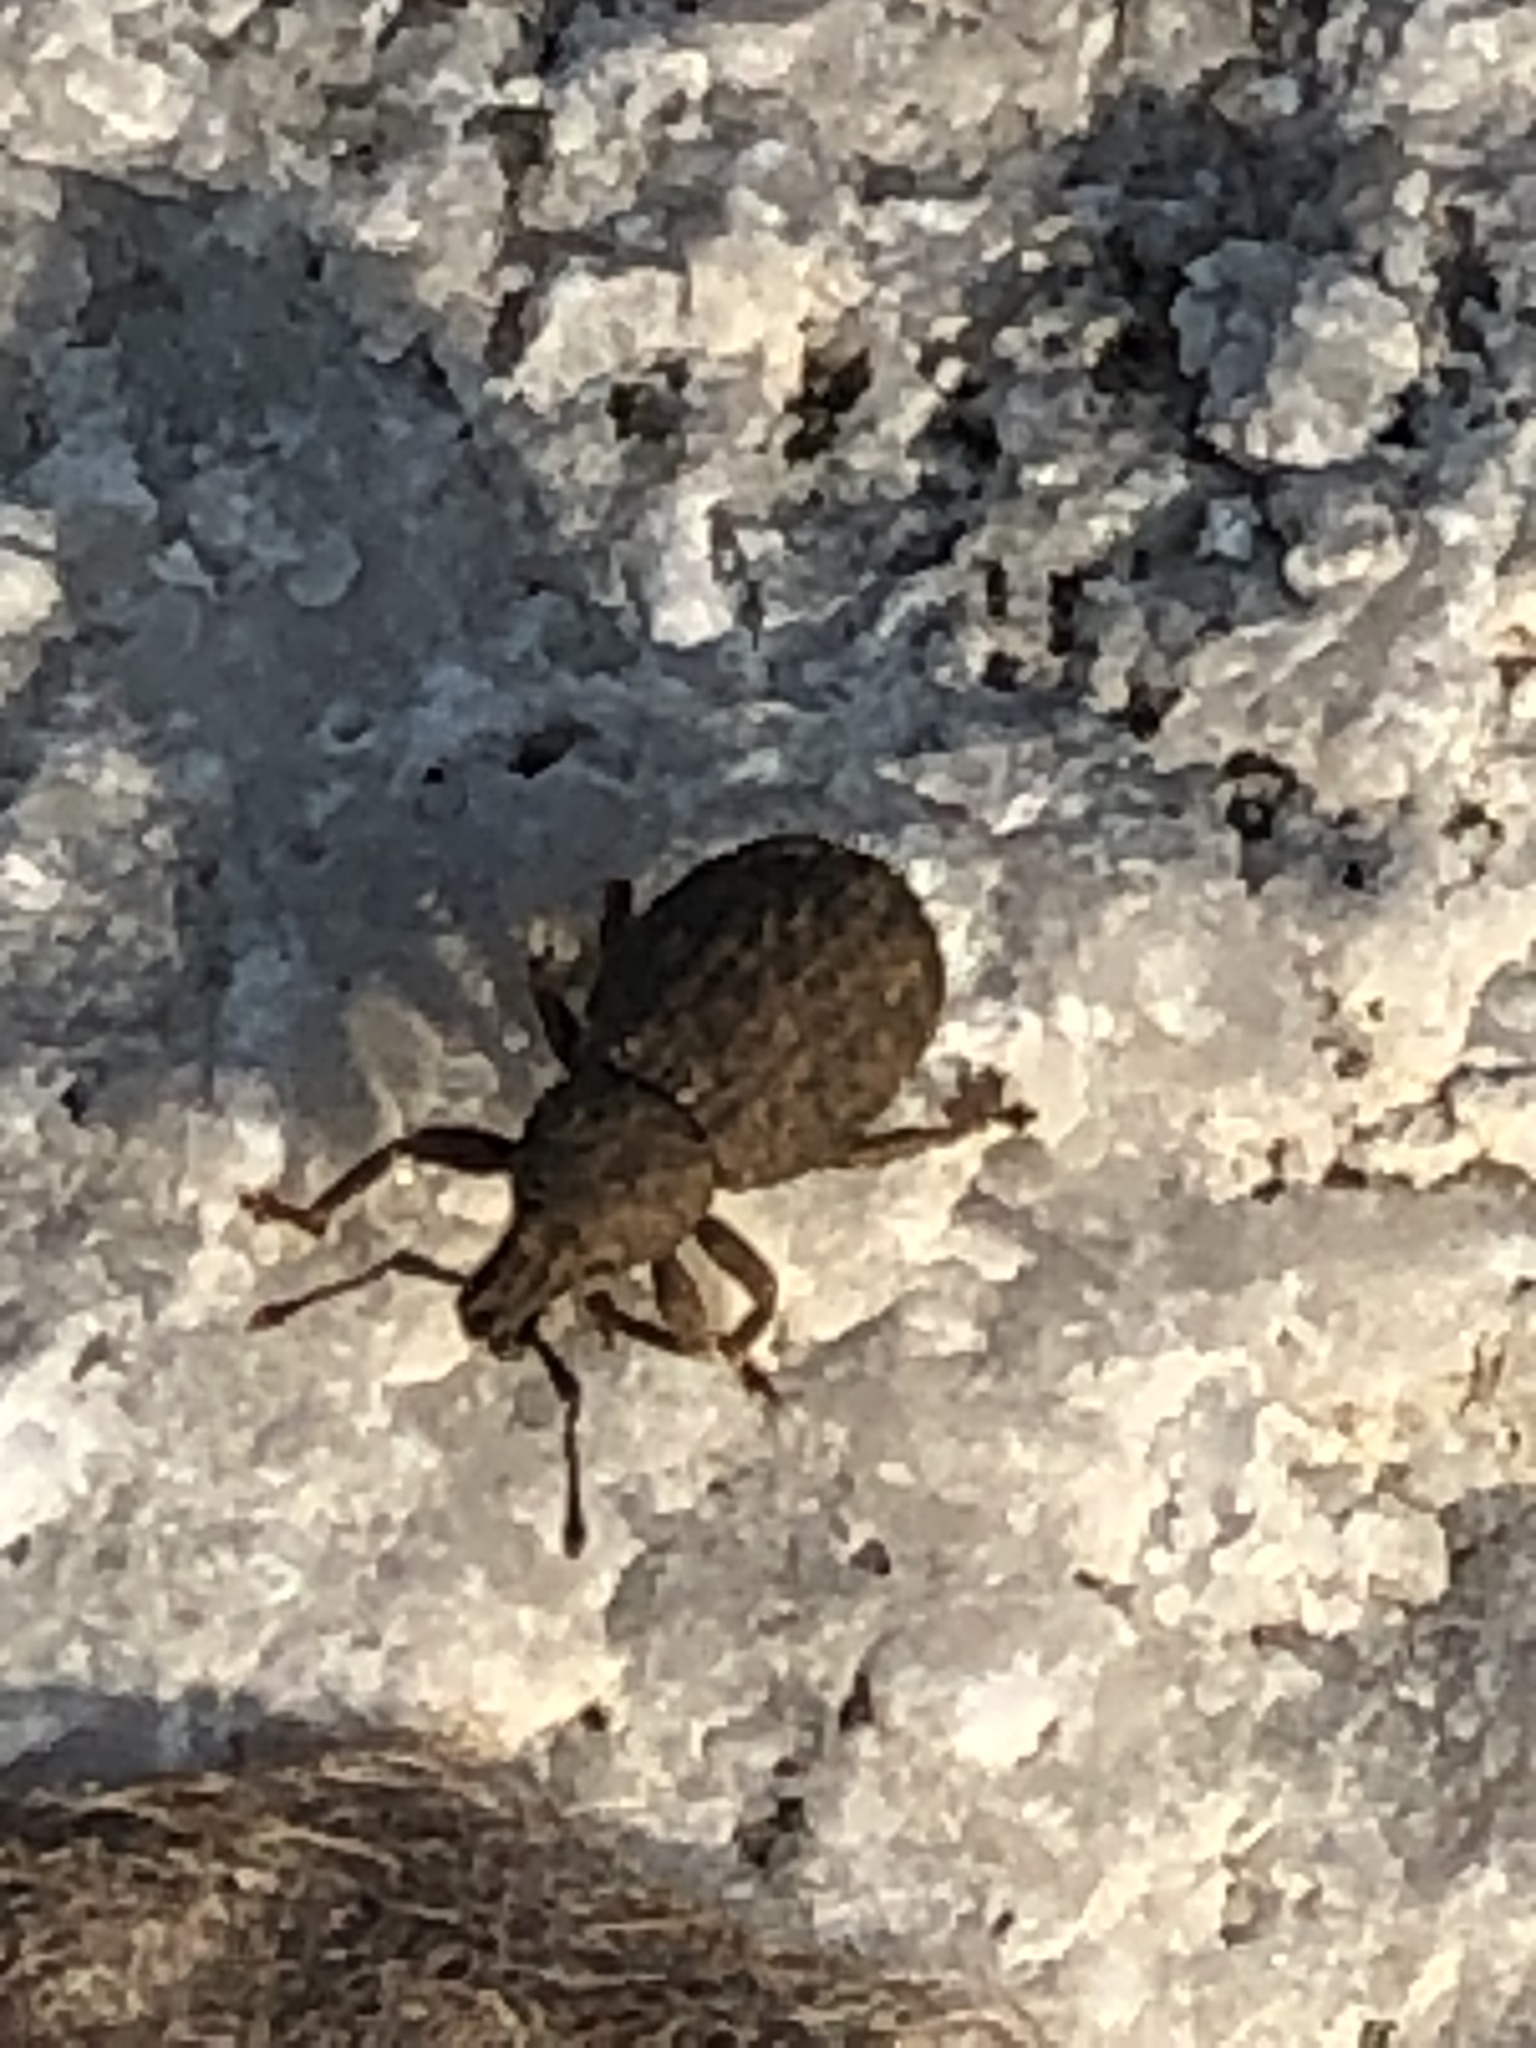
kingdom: Animalia
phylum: Arthropoda
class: Insecta
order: Coleoptera
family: Curculionidae
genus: Phyxelis
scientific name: Phyxelis rigidus
